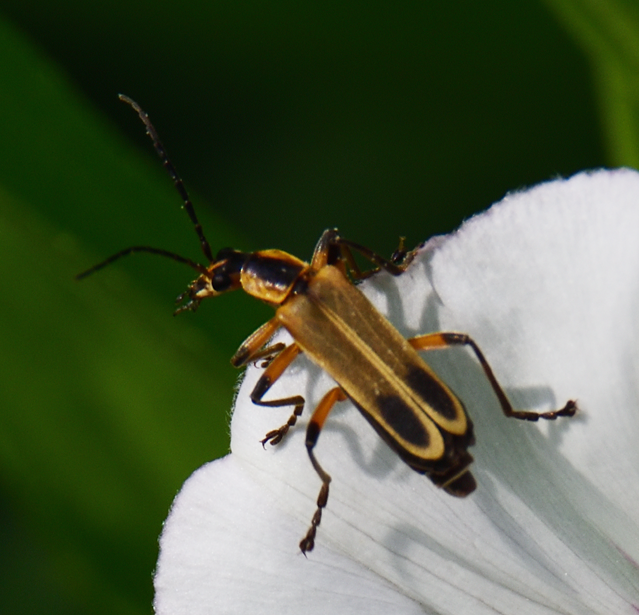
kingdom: Animalia
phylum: Arthropoda
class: Insecta
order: Coleoptera
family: Cantharidae
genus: Chauliognathus
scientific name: Chauliognathus marginatus
